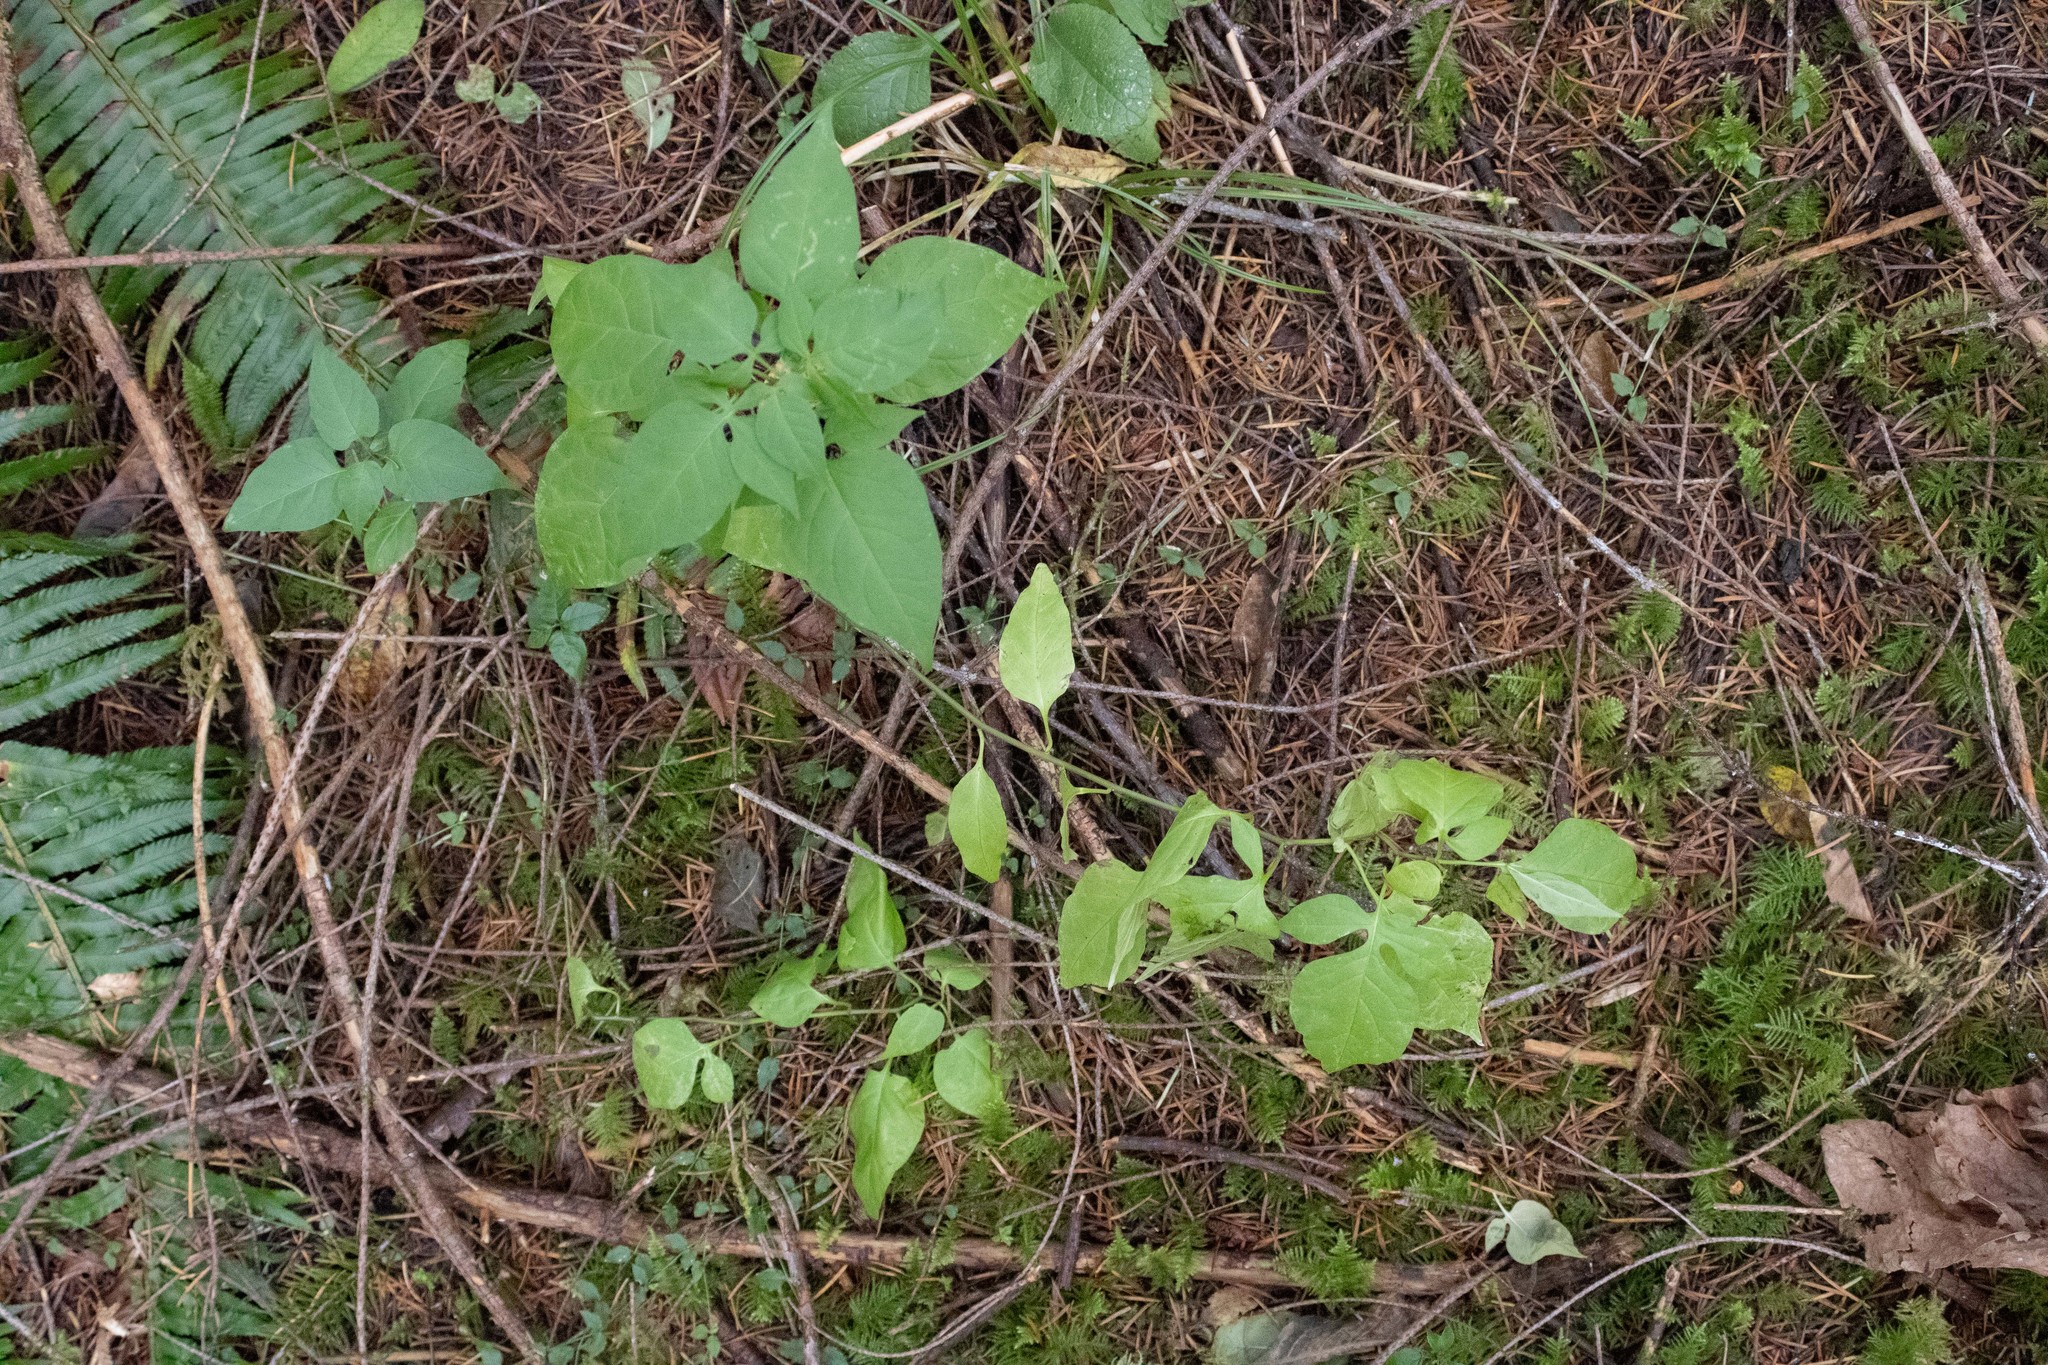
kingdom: Plantae
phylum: Tracheophyta
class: Magnoliopsida
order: Solanales
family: Solanaceae
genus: Solanum
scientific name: Solanum dulcamara
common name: Climbing nightshade
